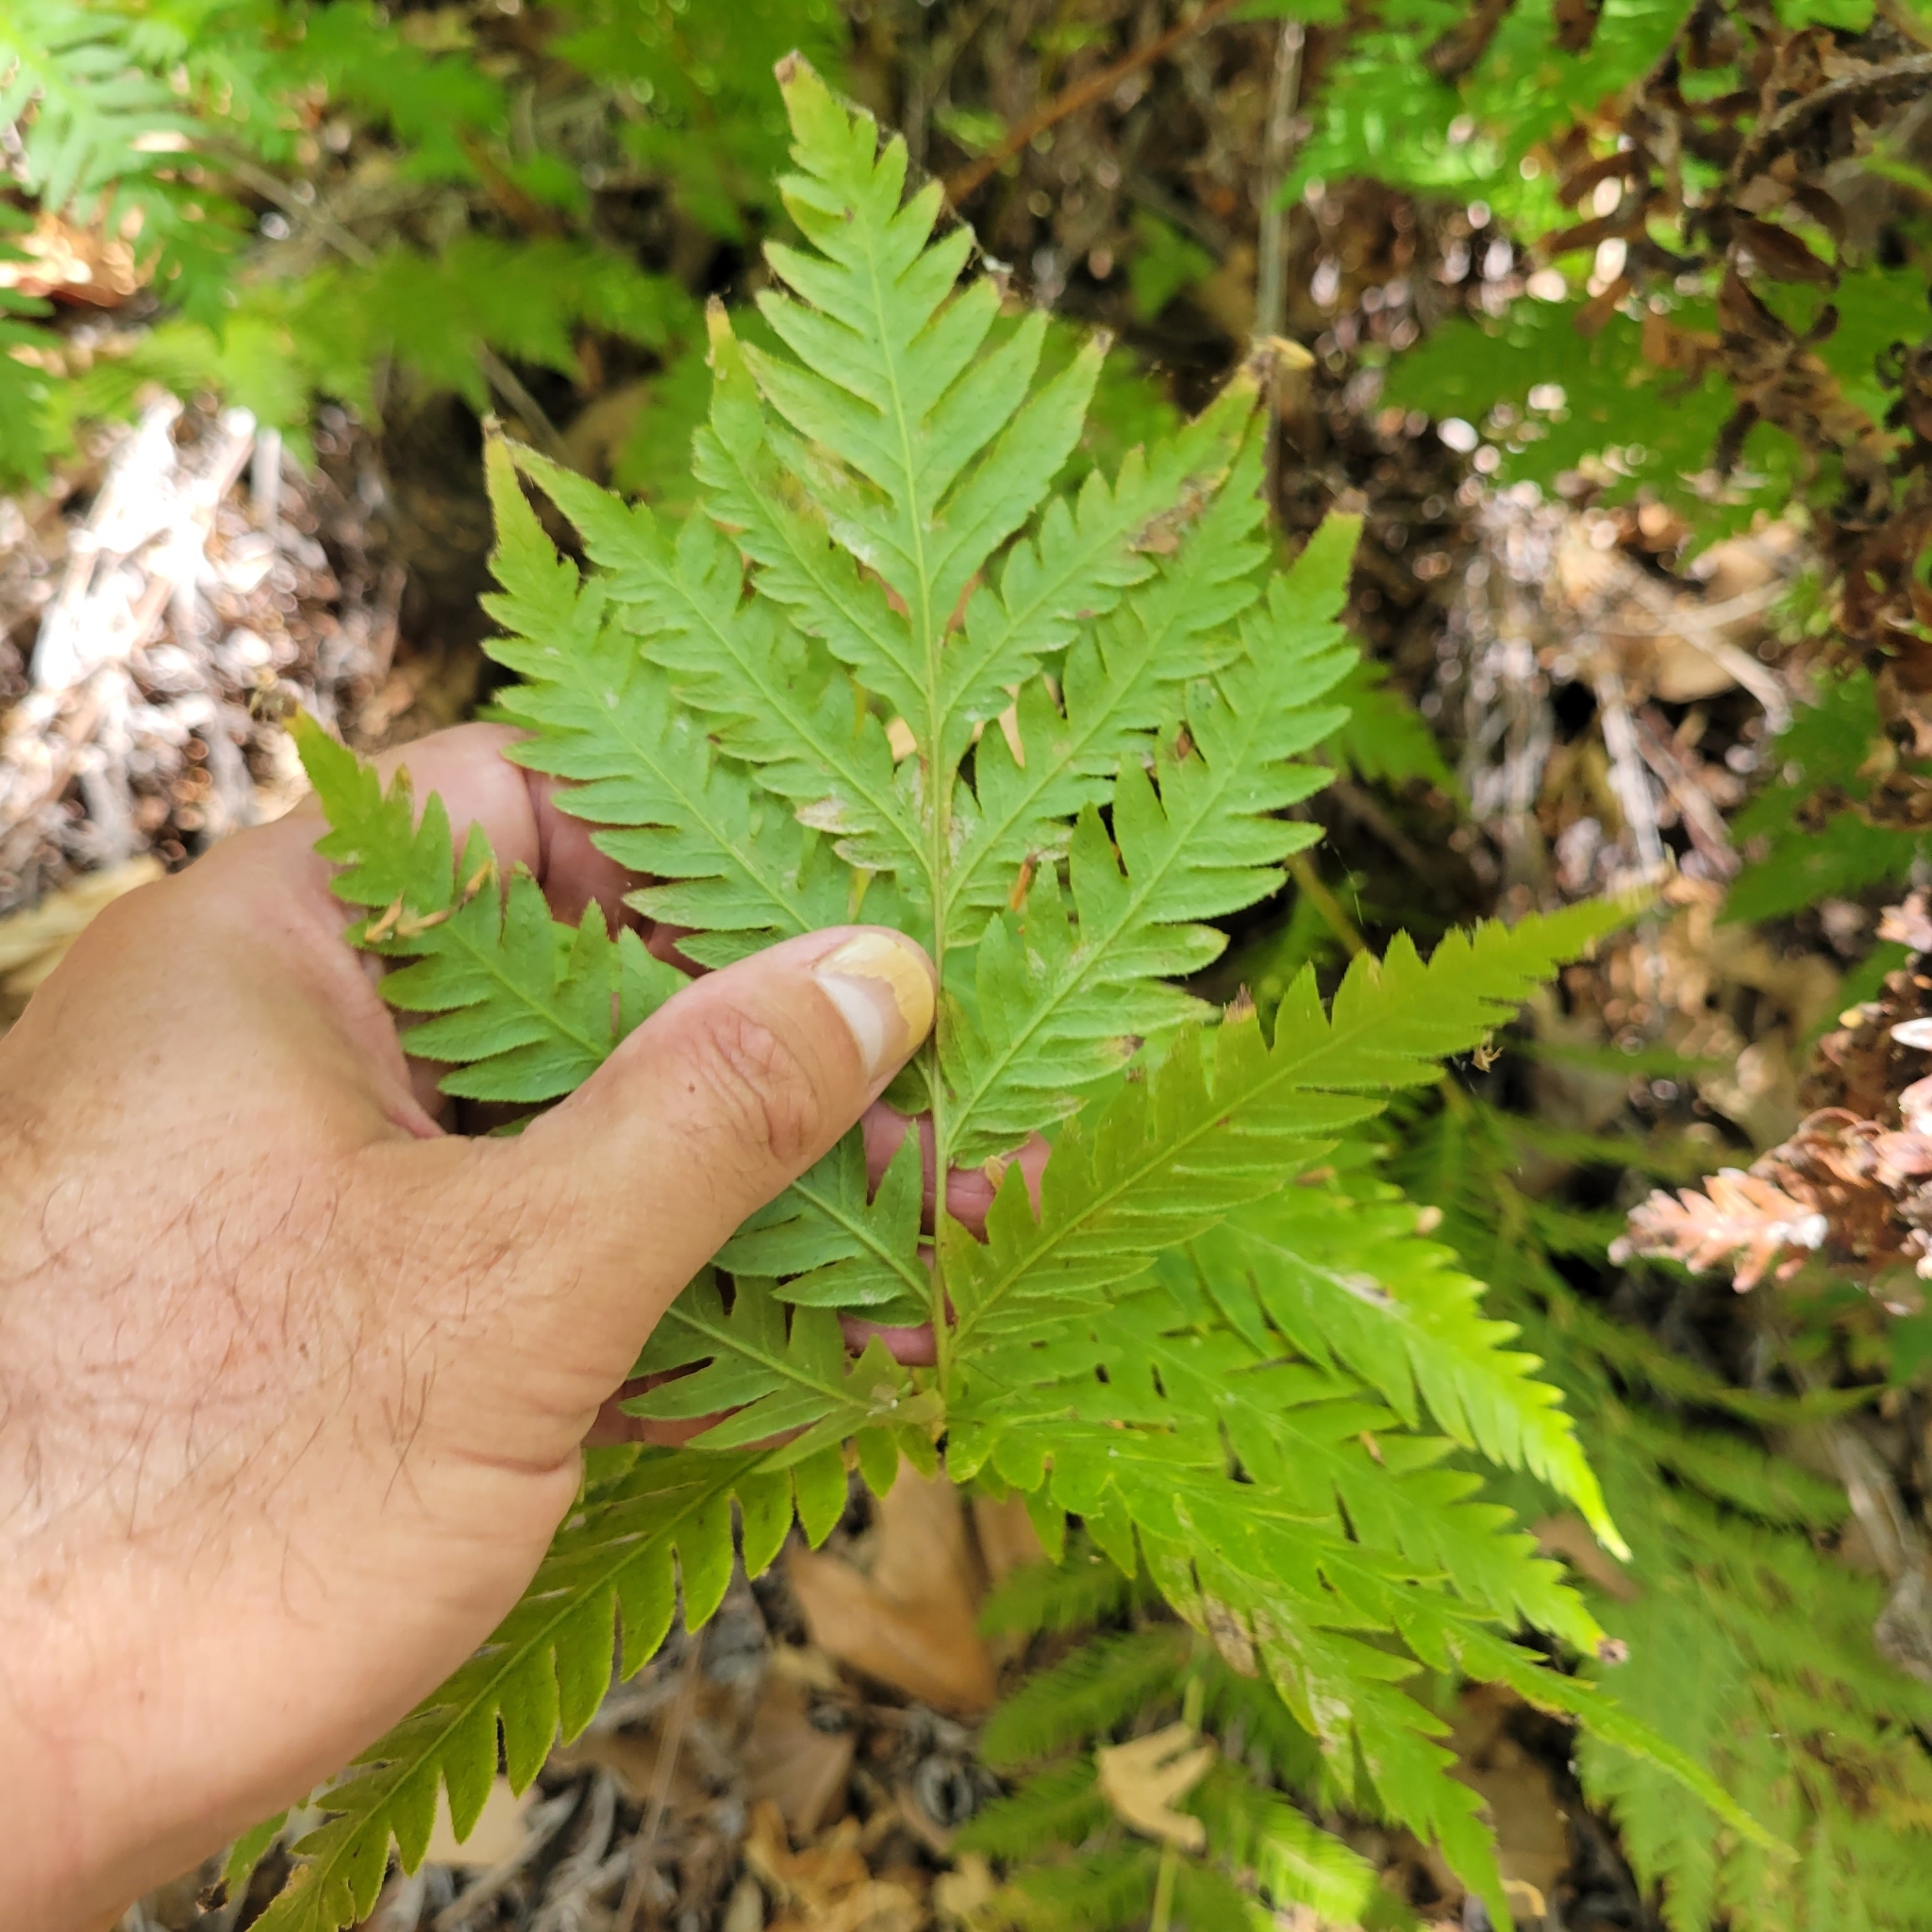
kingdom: Plantae
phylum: Tracheophyta
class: Polypodiopsida
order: Polypodiales
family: Blechnaceae
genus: Woodwardia
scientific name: Woodwardia fimbriata
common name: Giant chain fern
